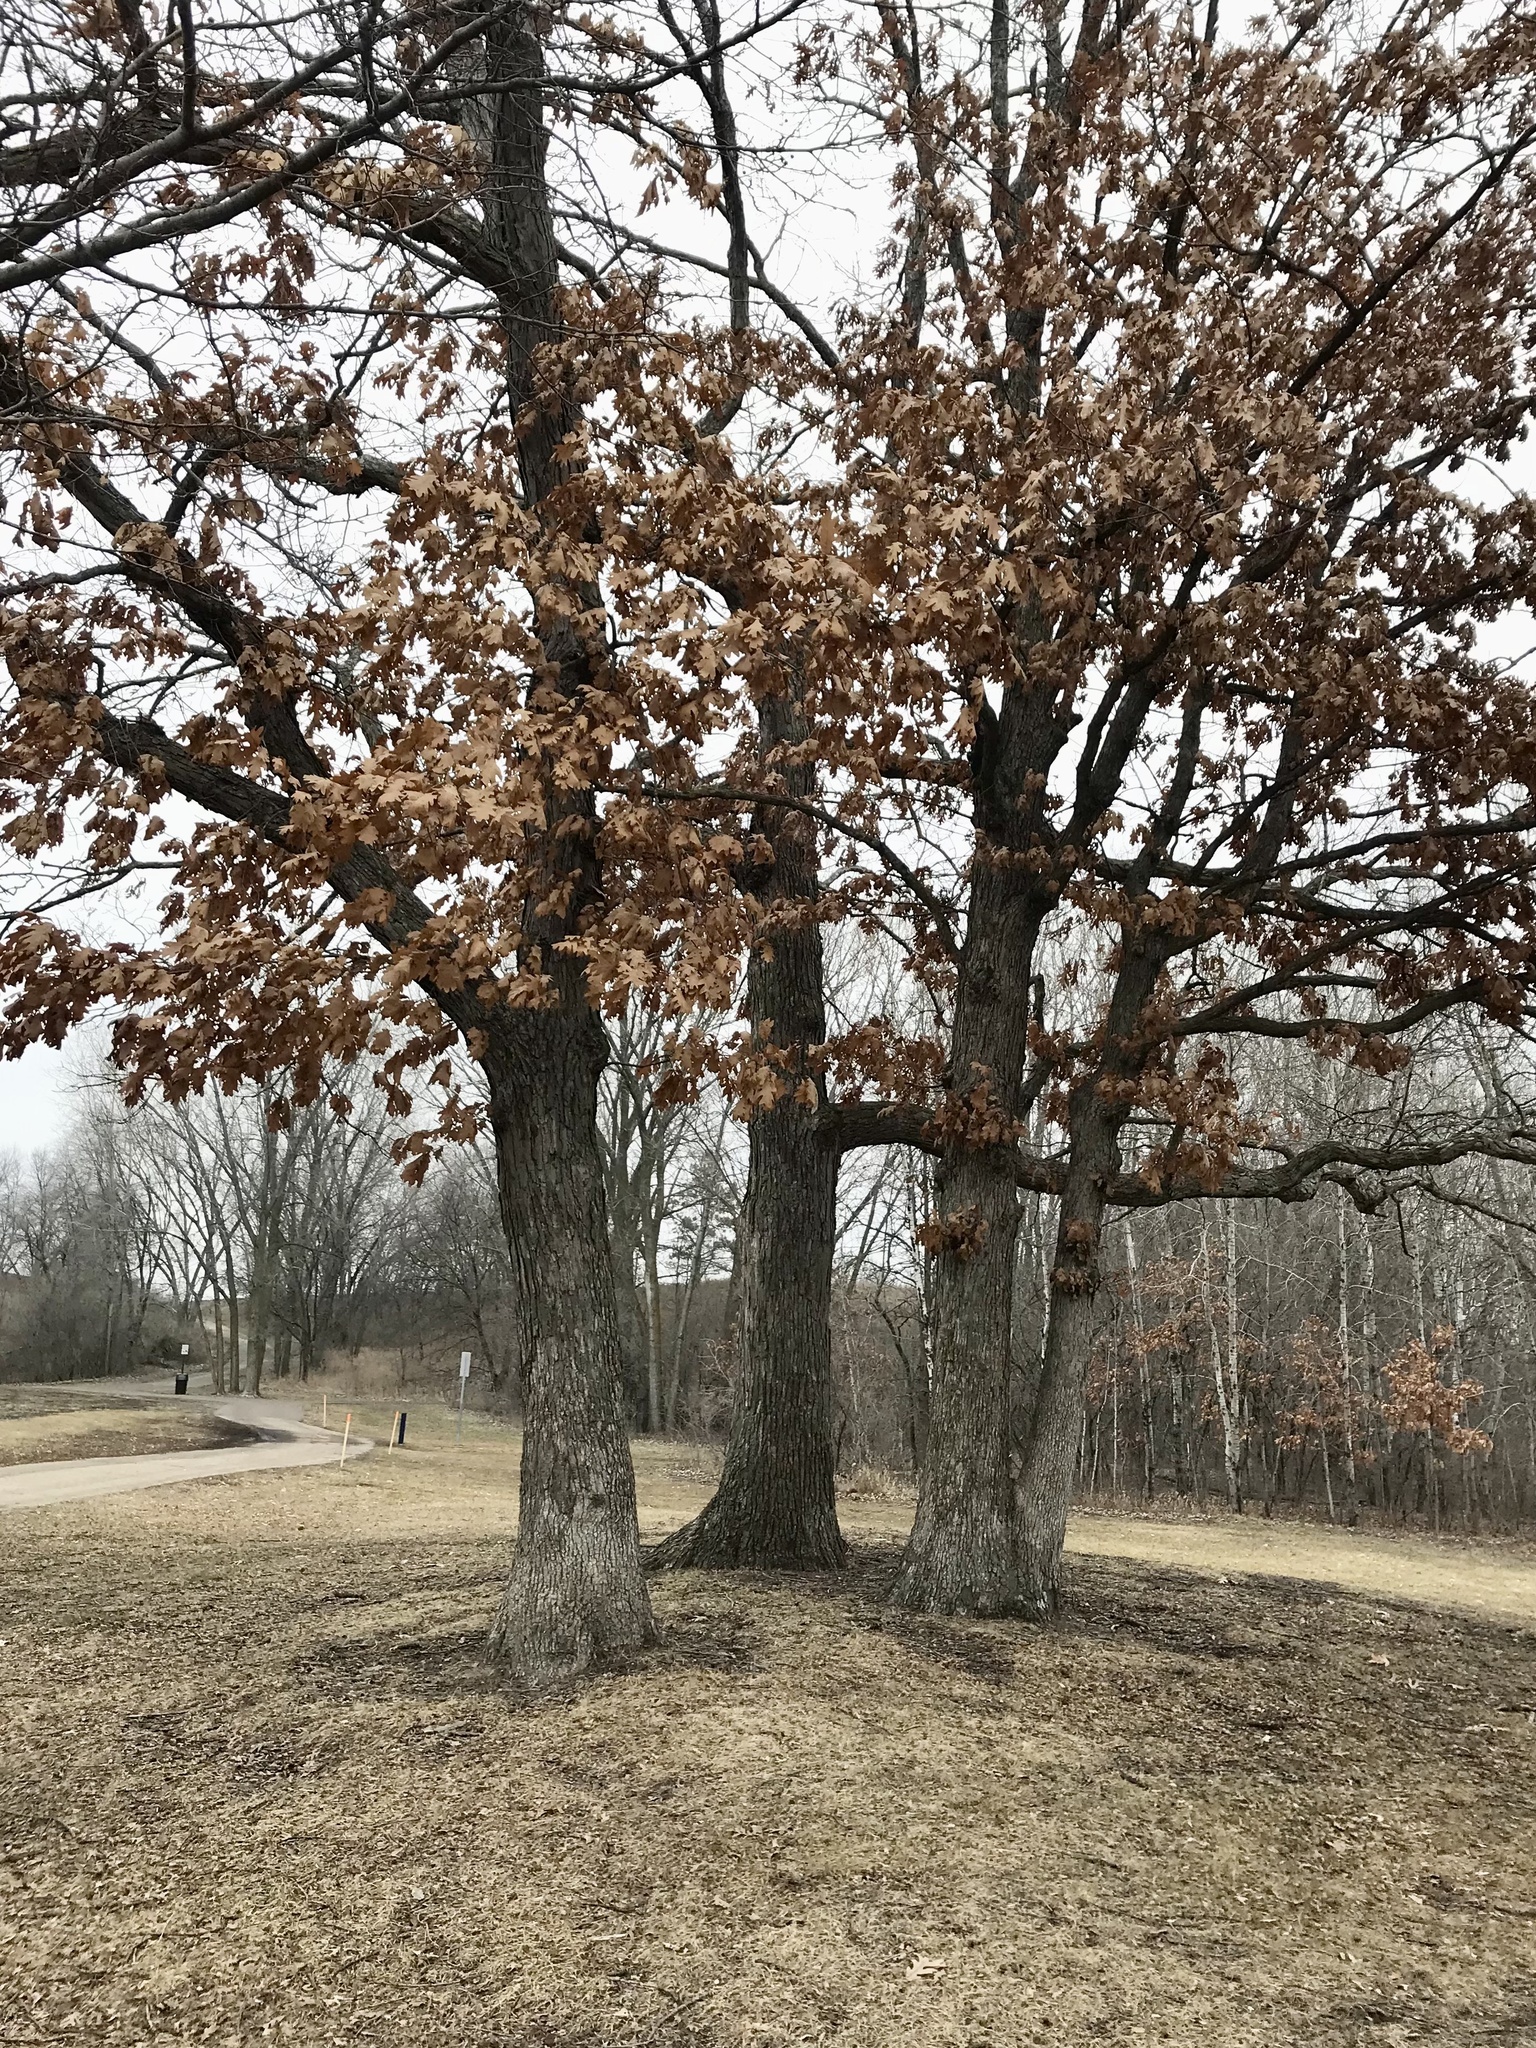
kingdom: Plantae
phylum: Tracheophyta
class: Magnoliopsida
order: Fagales
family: Fagaceae
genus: Quercus
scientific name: Quercus alba
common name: White oak
